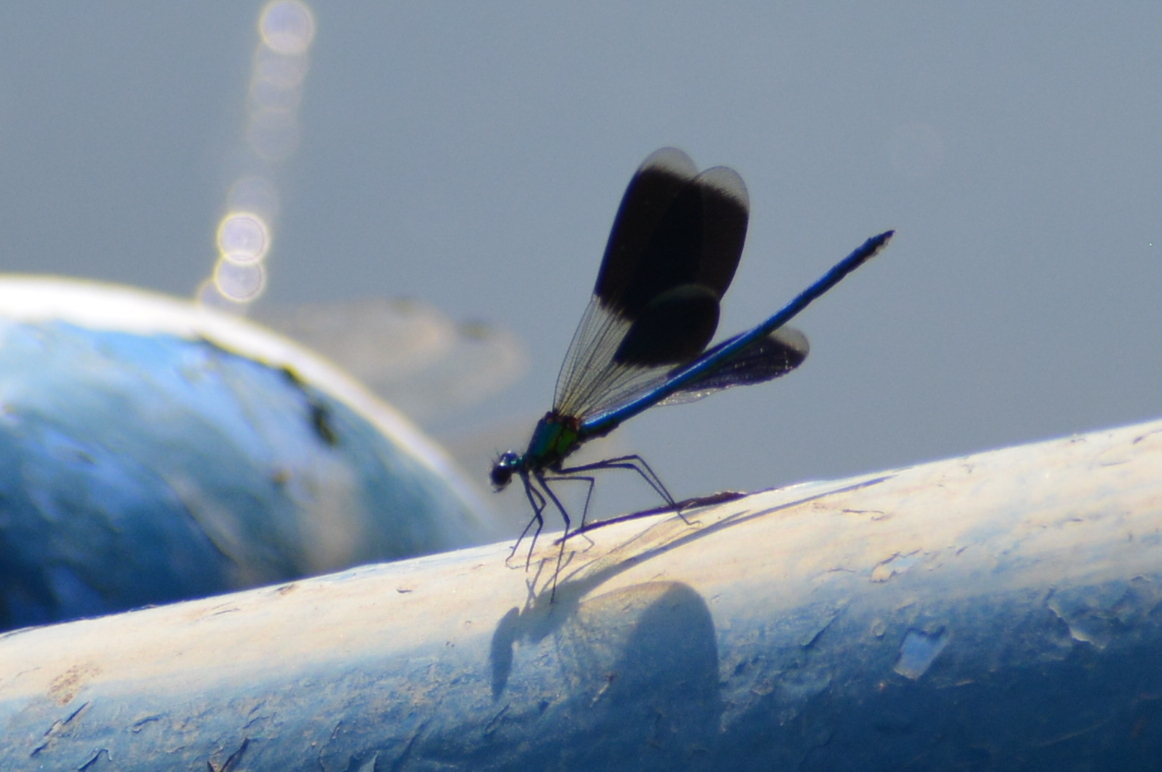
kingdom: Animalia
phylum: Arthropoda
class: Insecta
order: Odonata
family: Calopterygidae
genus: Calopteryx
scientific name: Calopteryx splendens
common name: Banded demoiselle
